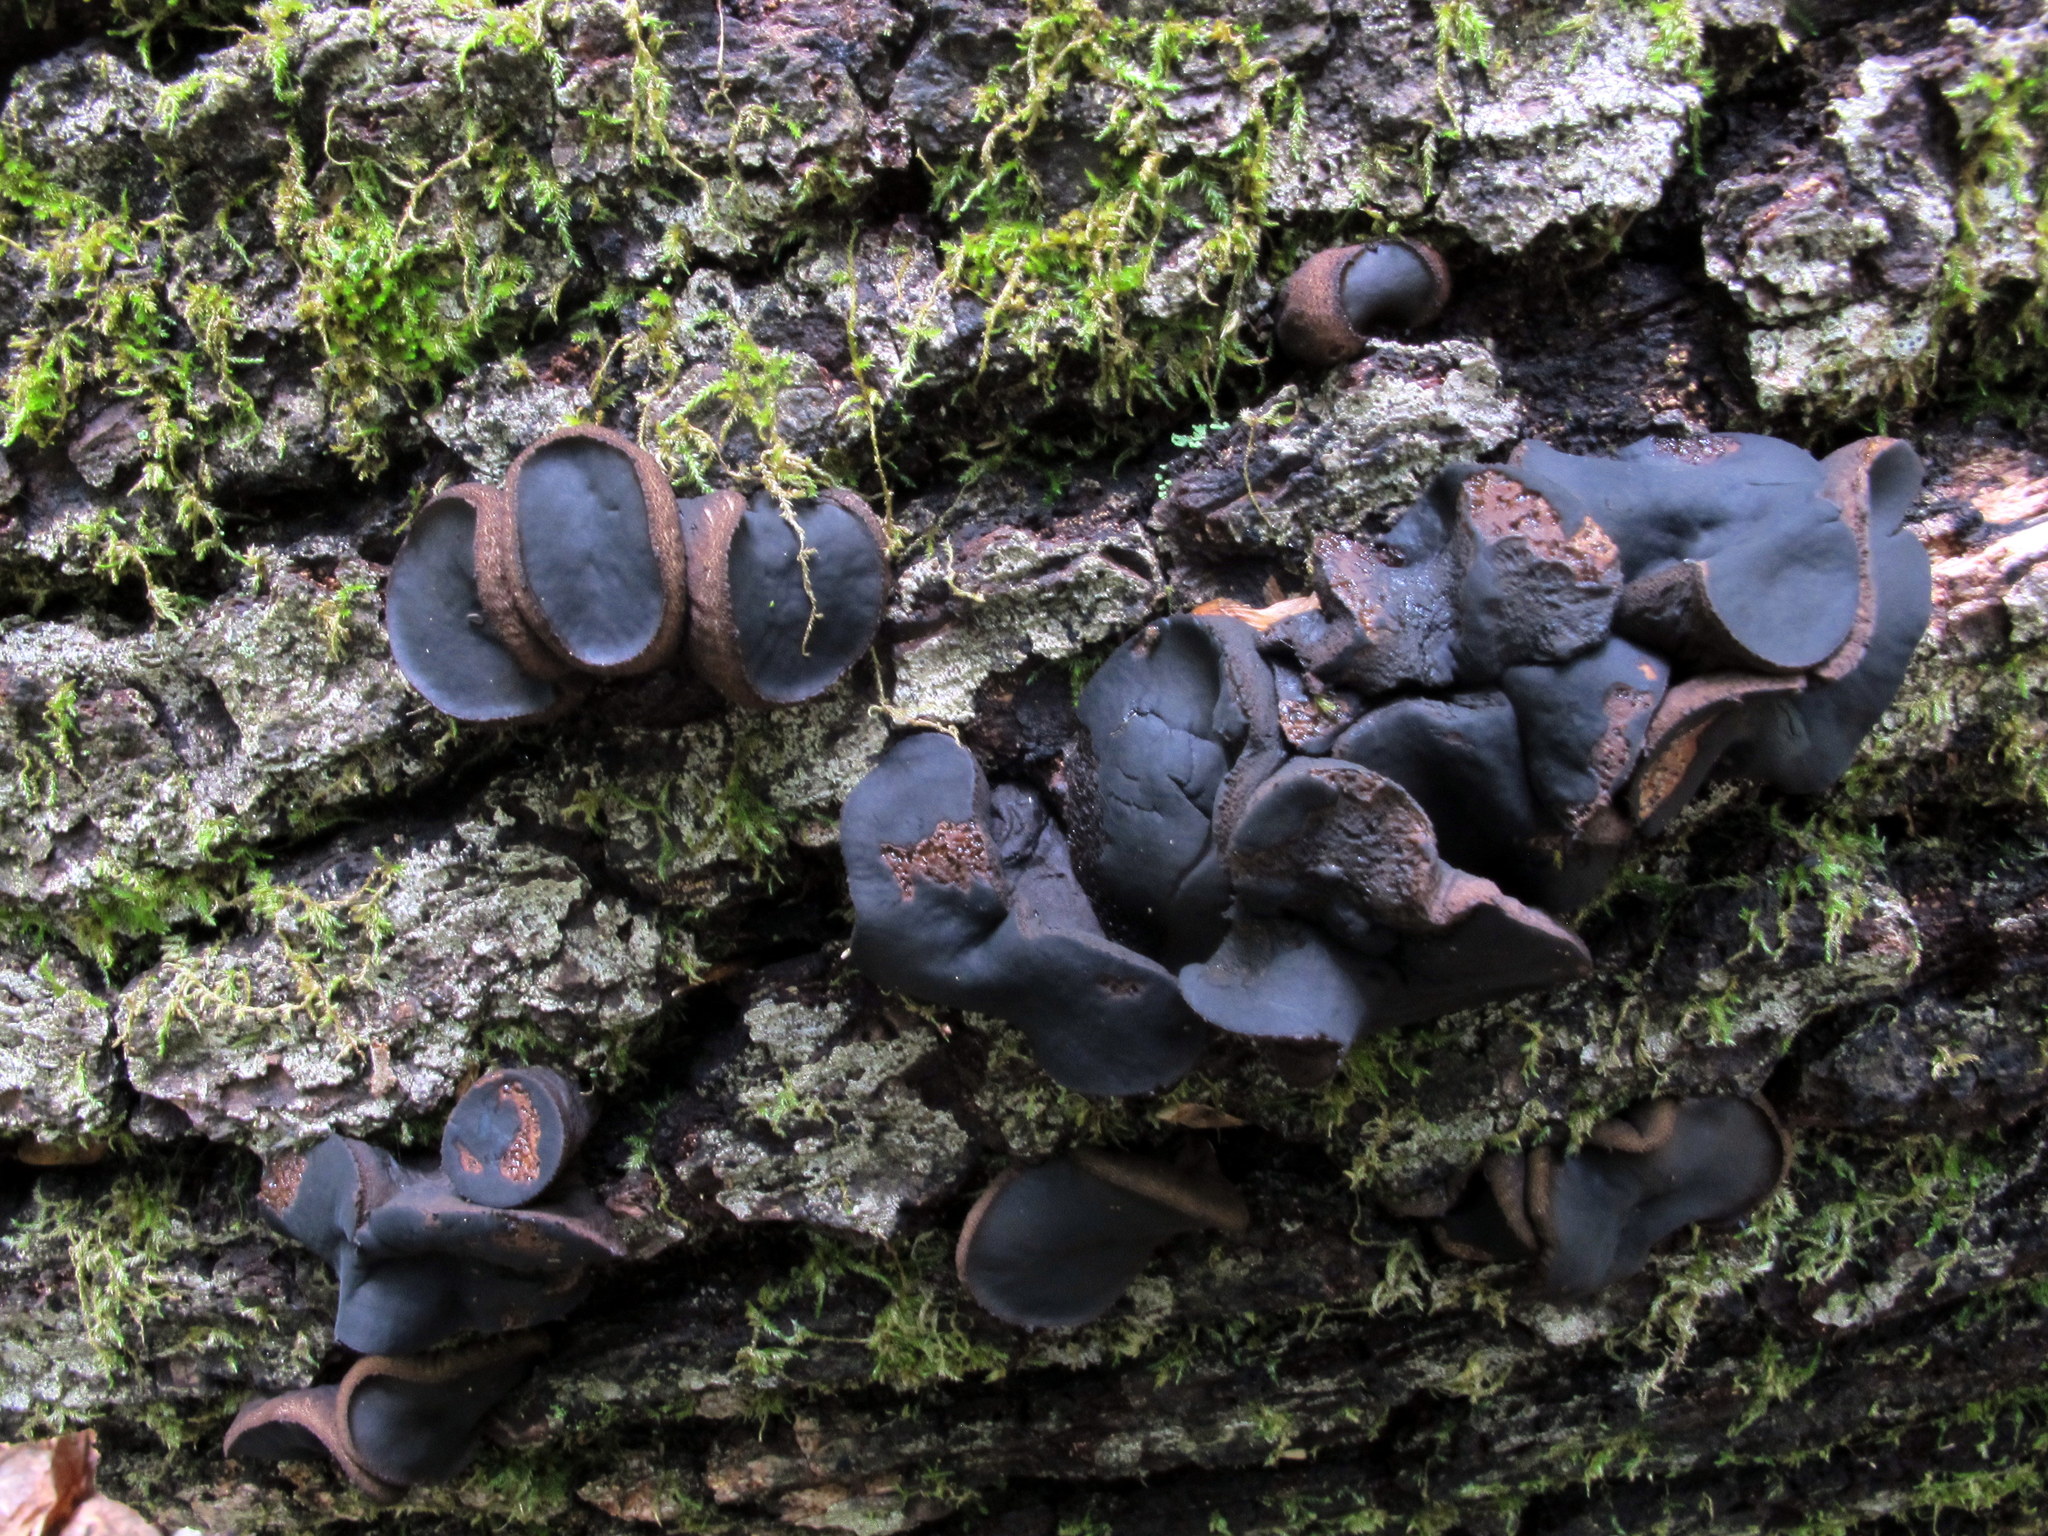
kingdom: Fungi
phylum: Ascomycota
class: Leotiomycetes
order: Phacidiales
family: Phacidiaceae
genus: Bulgaria
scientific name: Bulgaria inquinans
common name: Black bulgar
